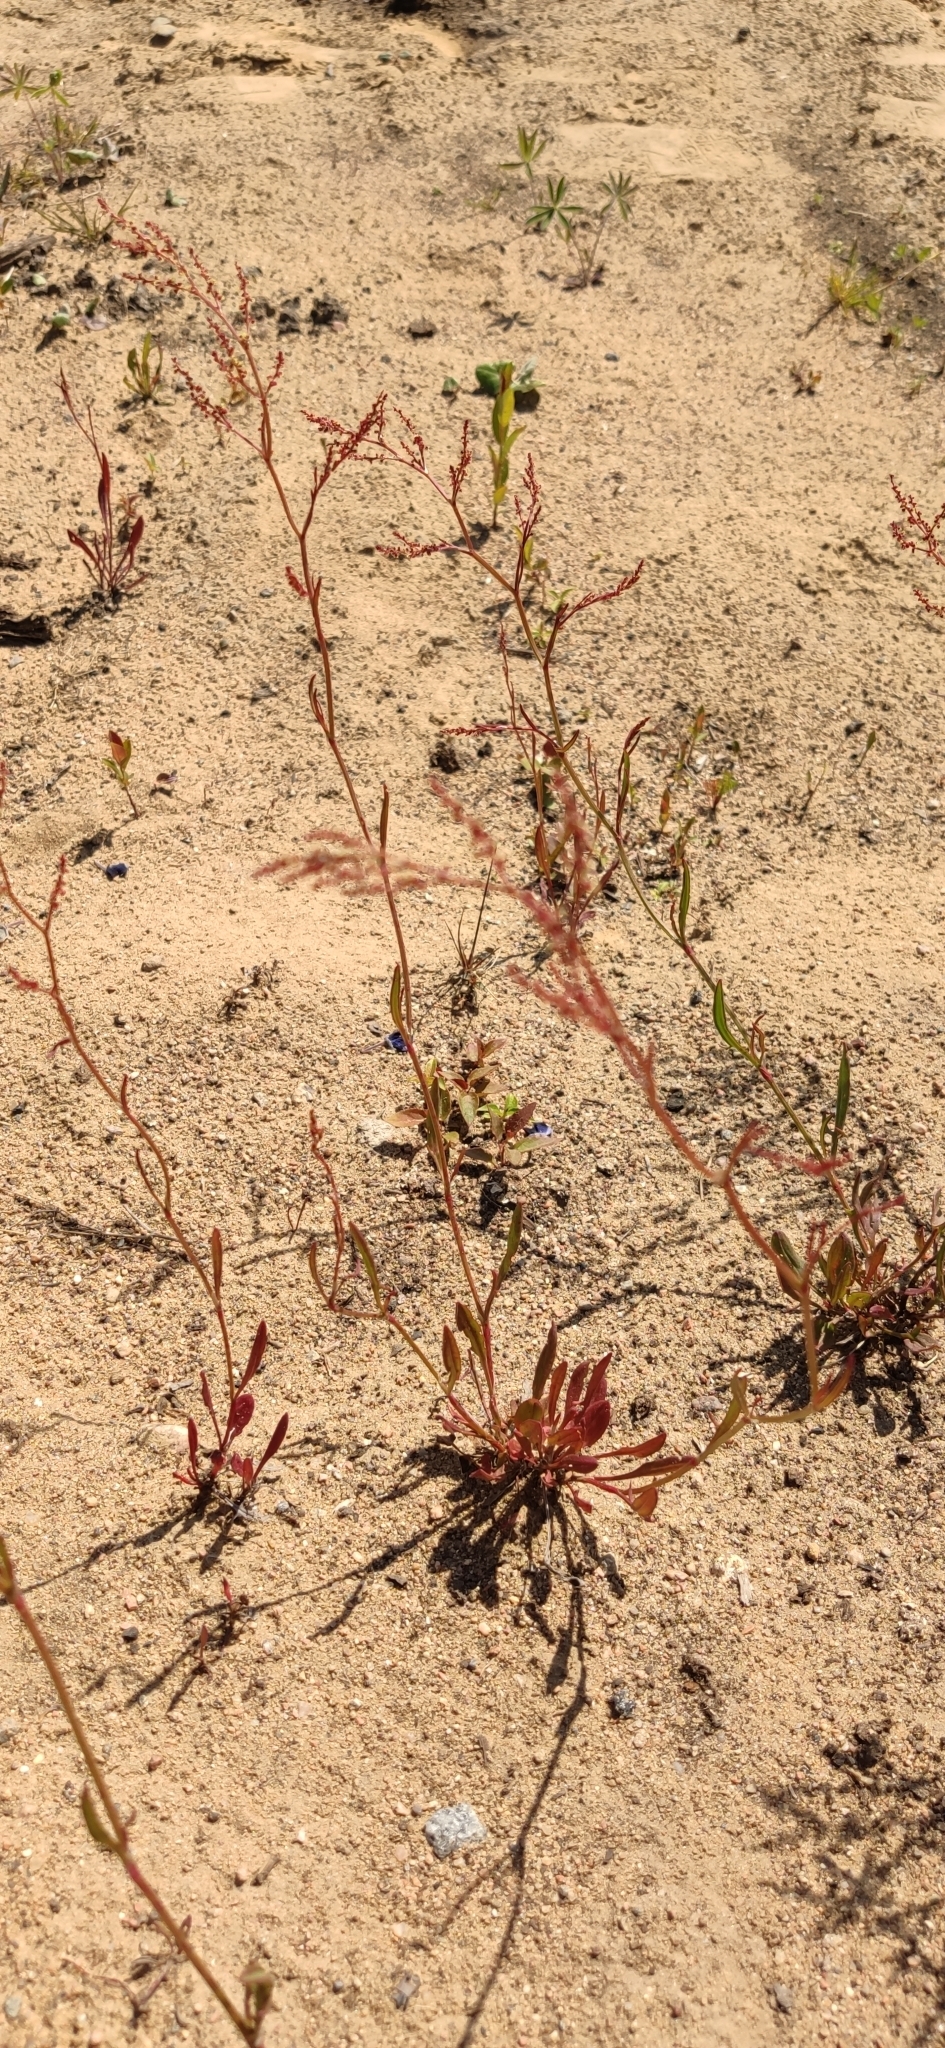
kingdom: Plantae
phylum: Tracheophyta
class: Magnoliopsida
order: Caryophyllales
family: Polygonaceae
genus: Rumex
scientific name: Rumex acetosella
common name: Common sheep sorrel
